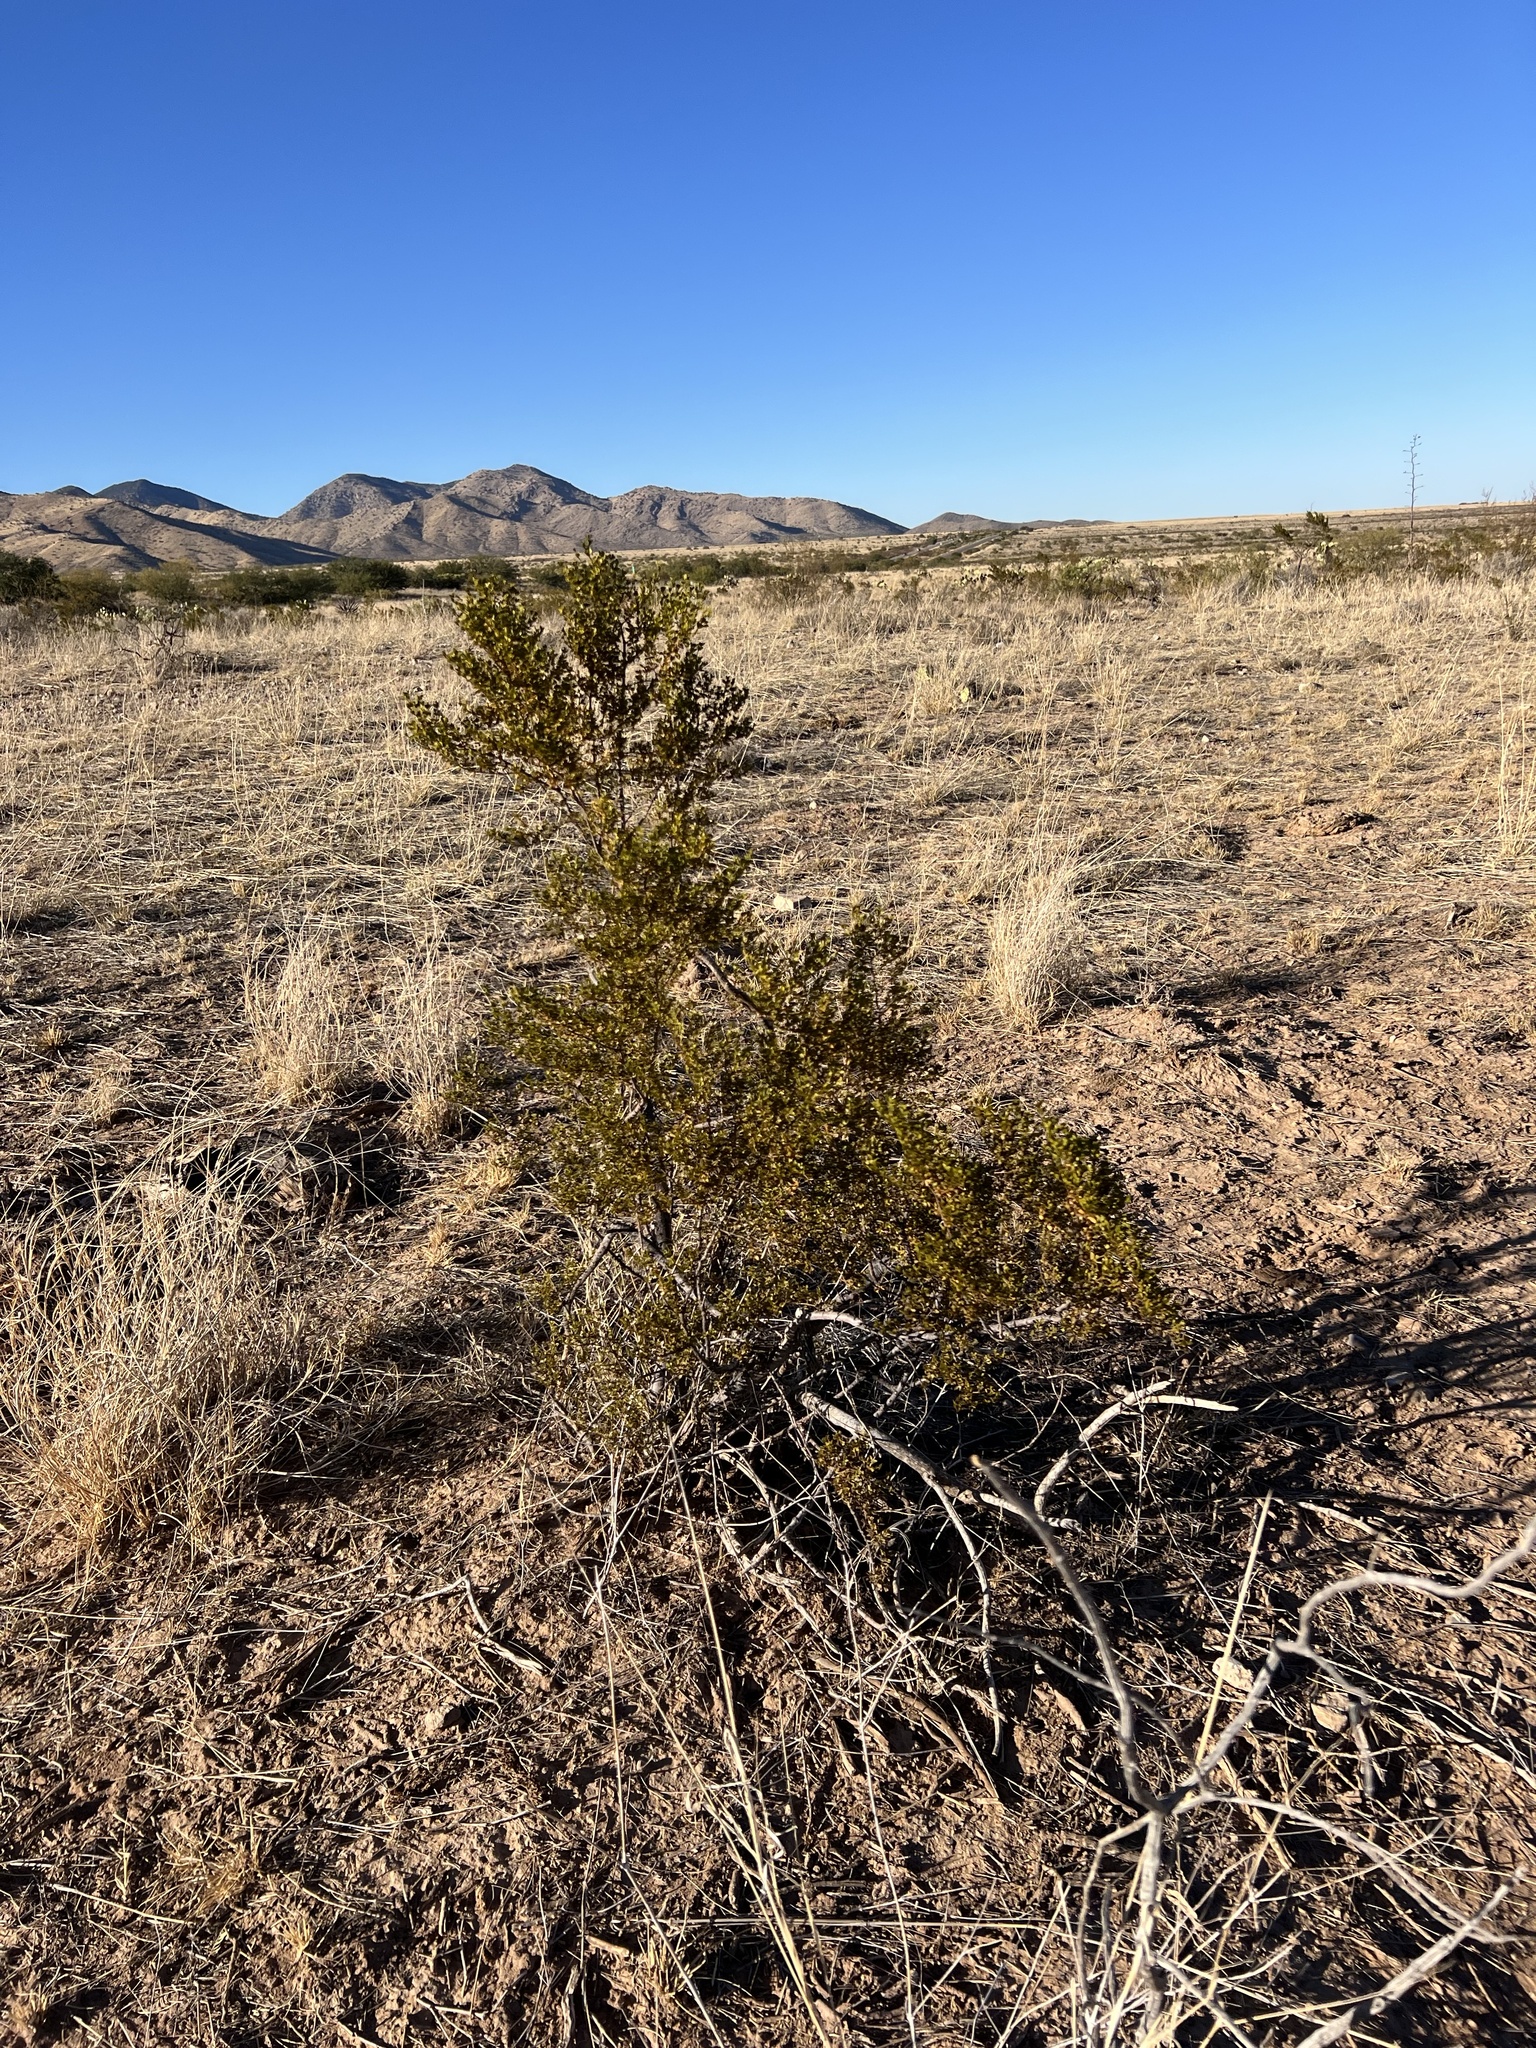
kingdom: Plantae
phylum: Tracheophyta
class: Magnoliopsida
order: Zygophyllales
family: Zygophyllaceae
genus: Larrea
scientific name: Larrea tridentata
